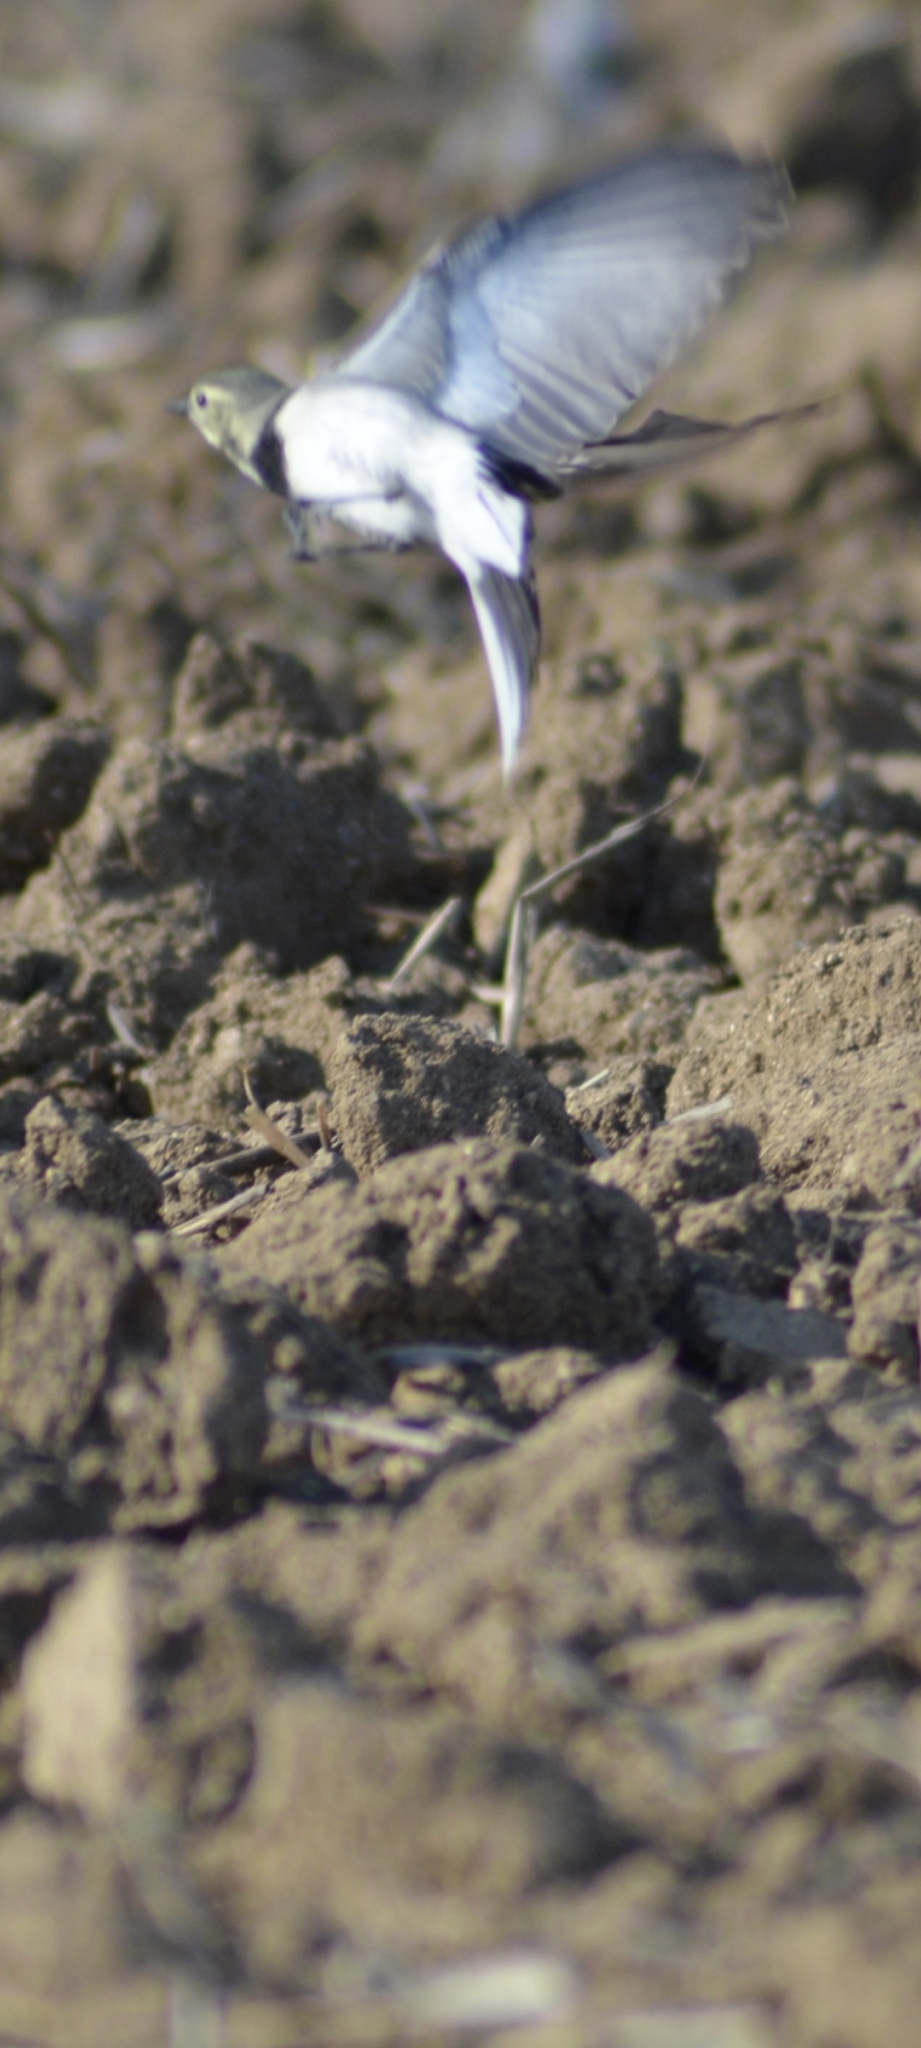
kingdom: Animalia
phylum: Chordata
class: Aves
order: Passeriformes
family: Motacillidae
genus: Motacilla
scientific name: Motacilla alba
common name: White wagtail
